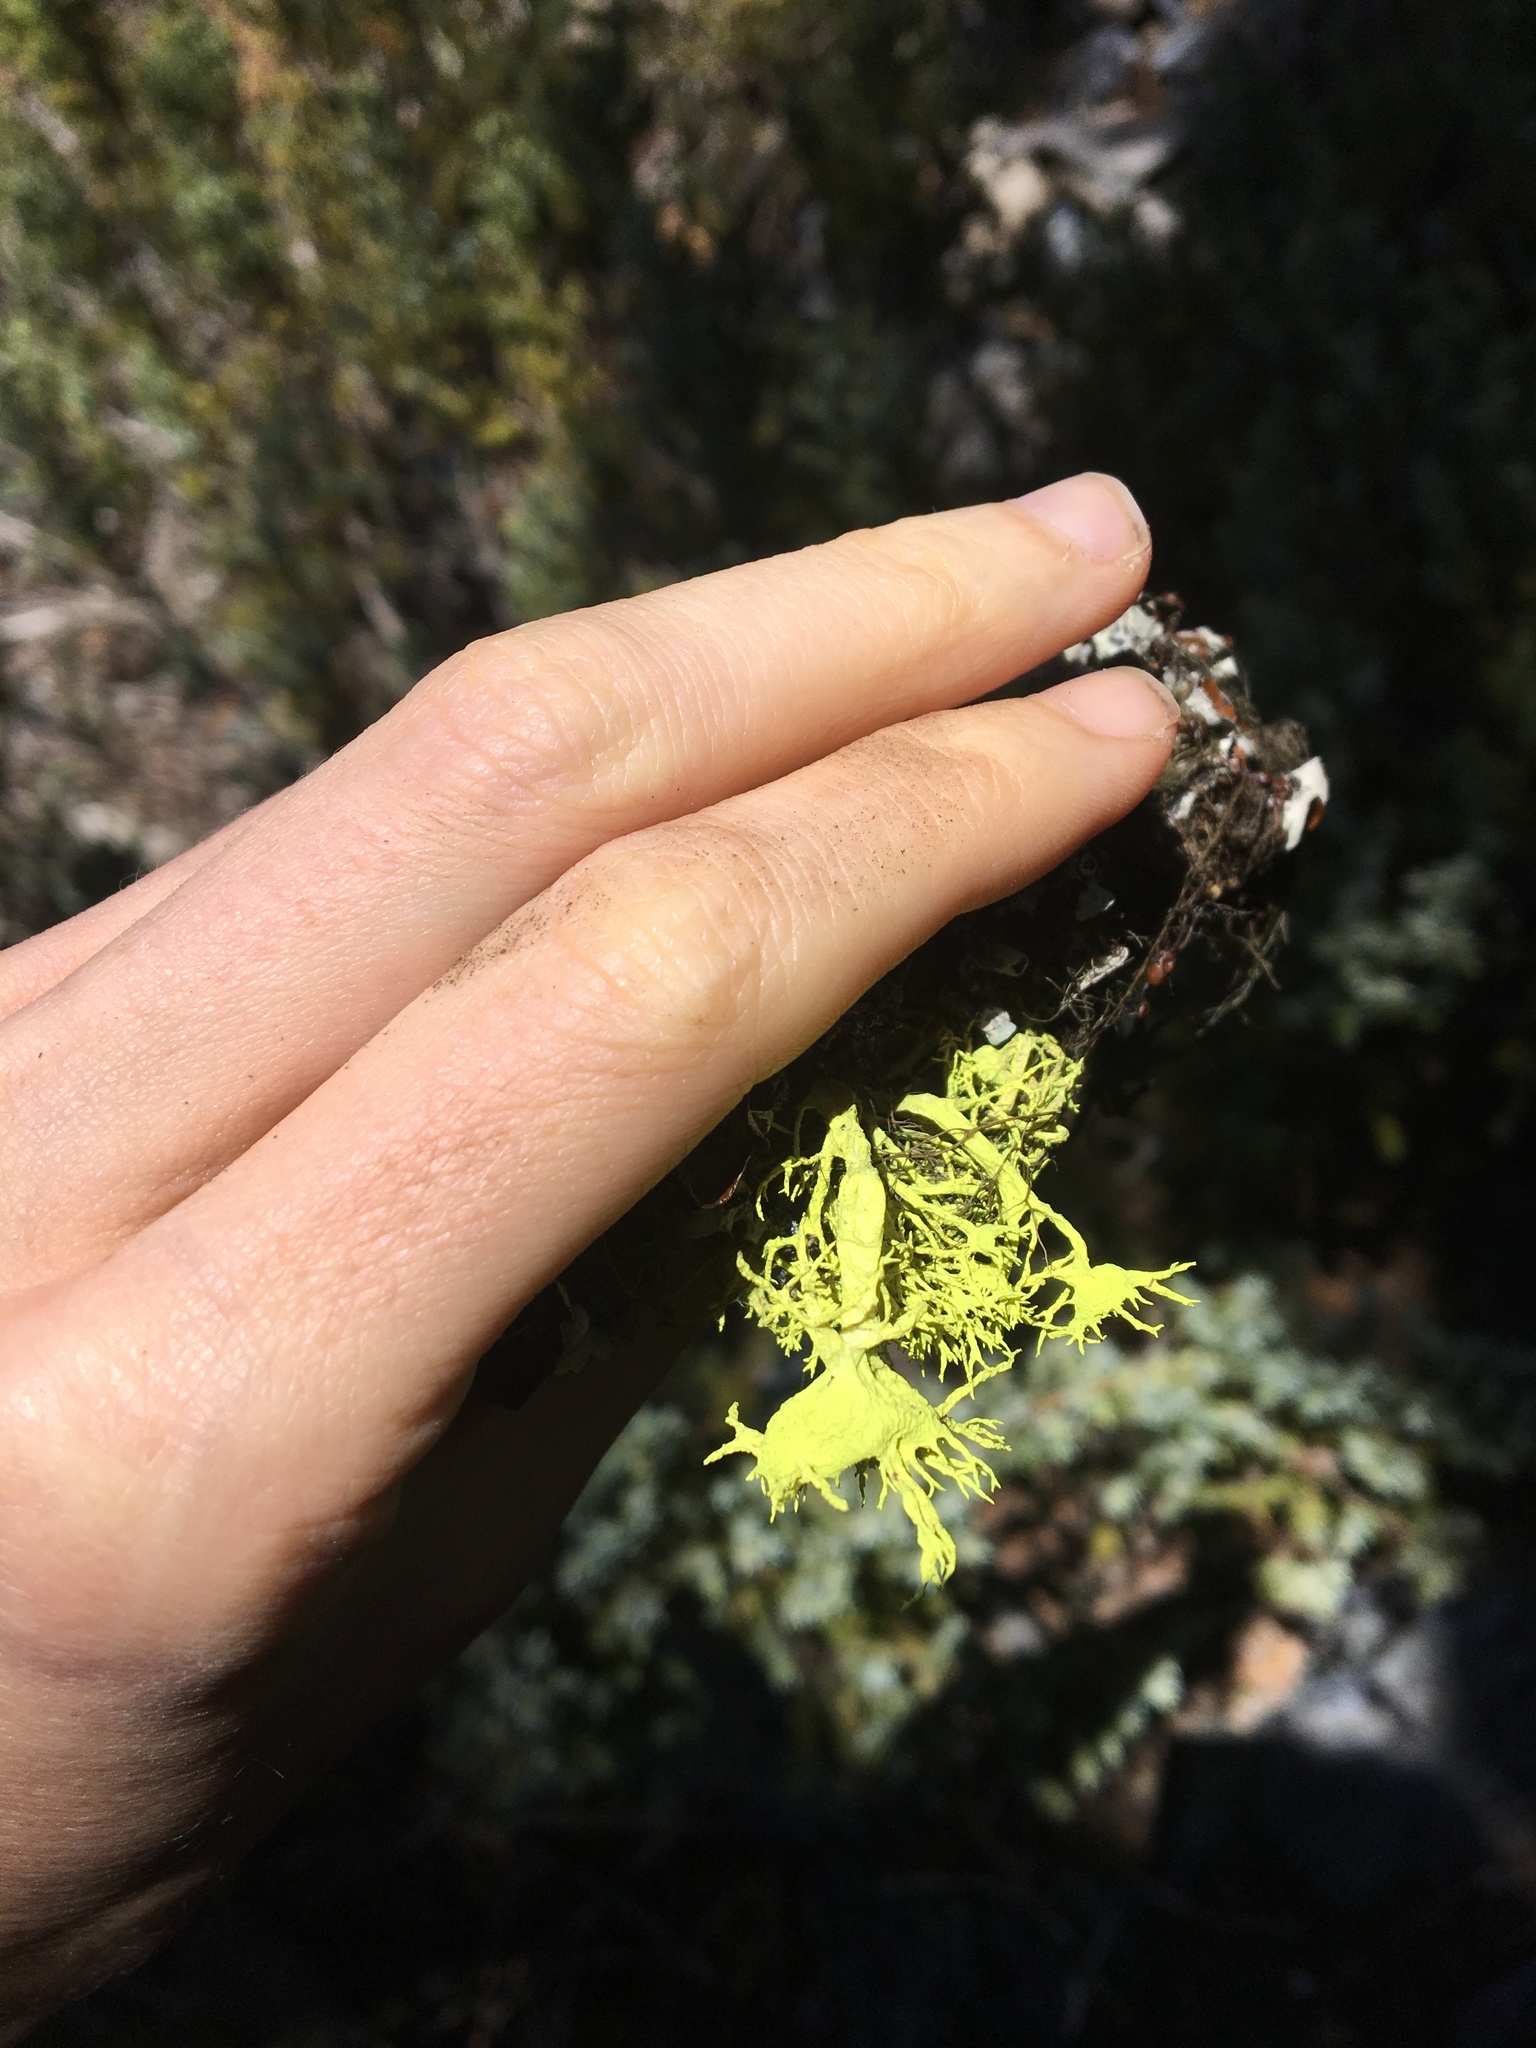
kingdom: Fungi
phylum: Ascomycota
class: Lecanoromycetes
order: Lecanorales
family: Parmeliaceae
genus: Letharia
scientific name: Letharia columbiana
